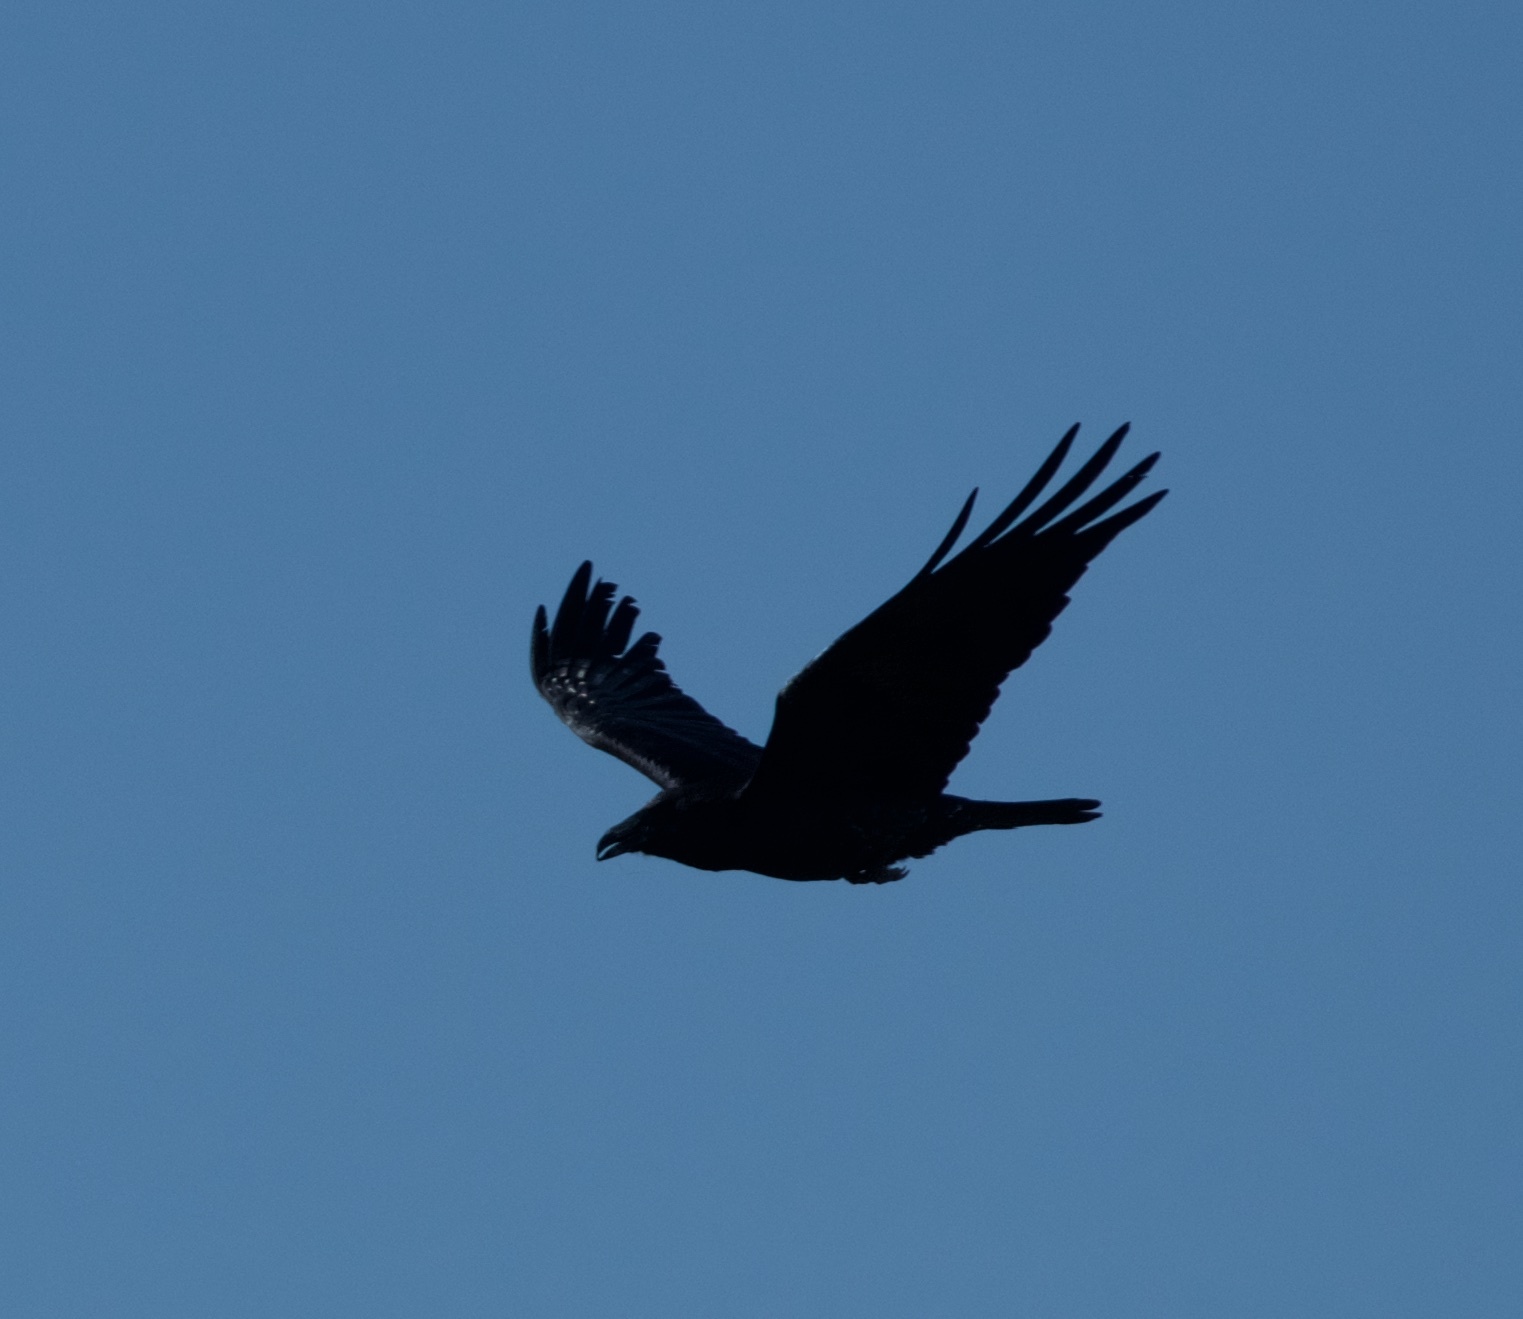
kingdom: Animalia
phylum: Chordata
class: Aves
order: Passeriformes
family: Corvidae
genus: Corvus
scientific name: Corvus corax
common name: Common raven
